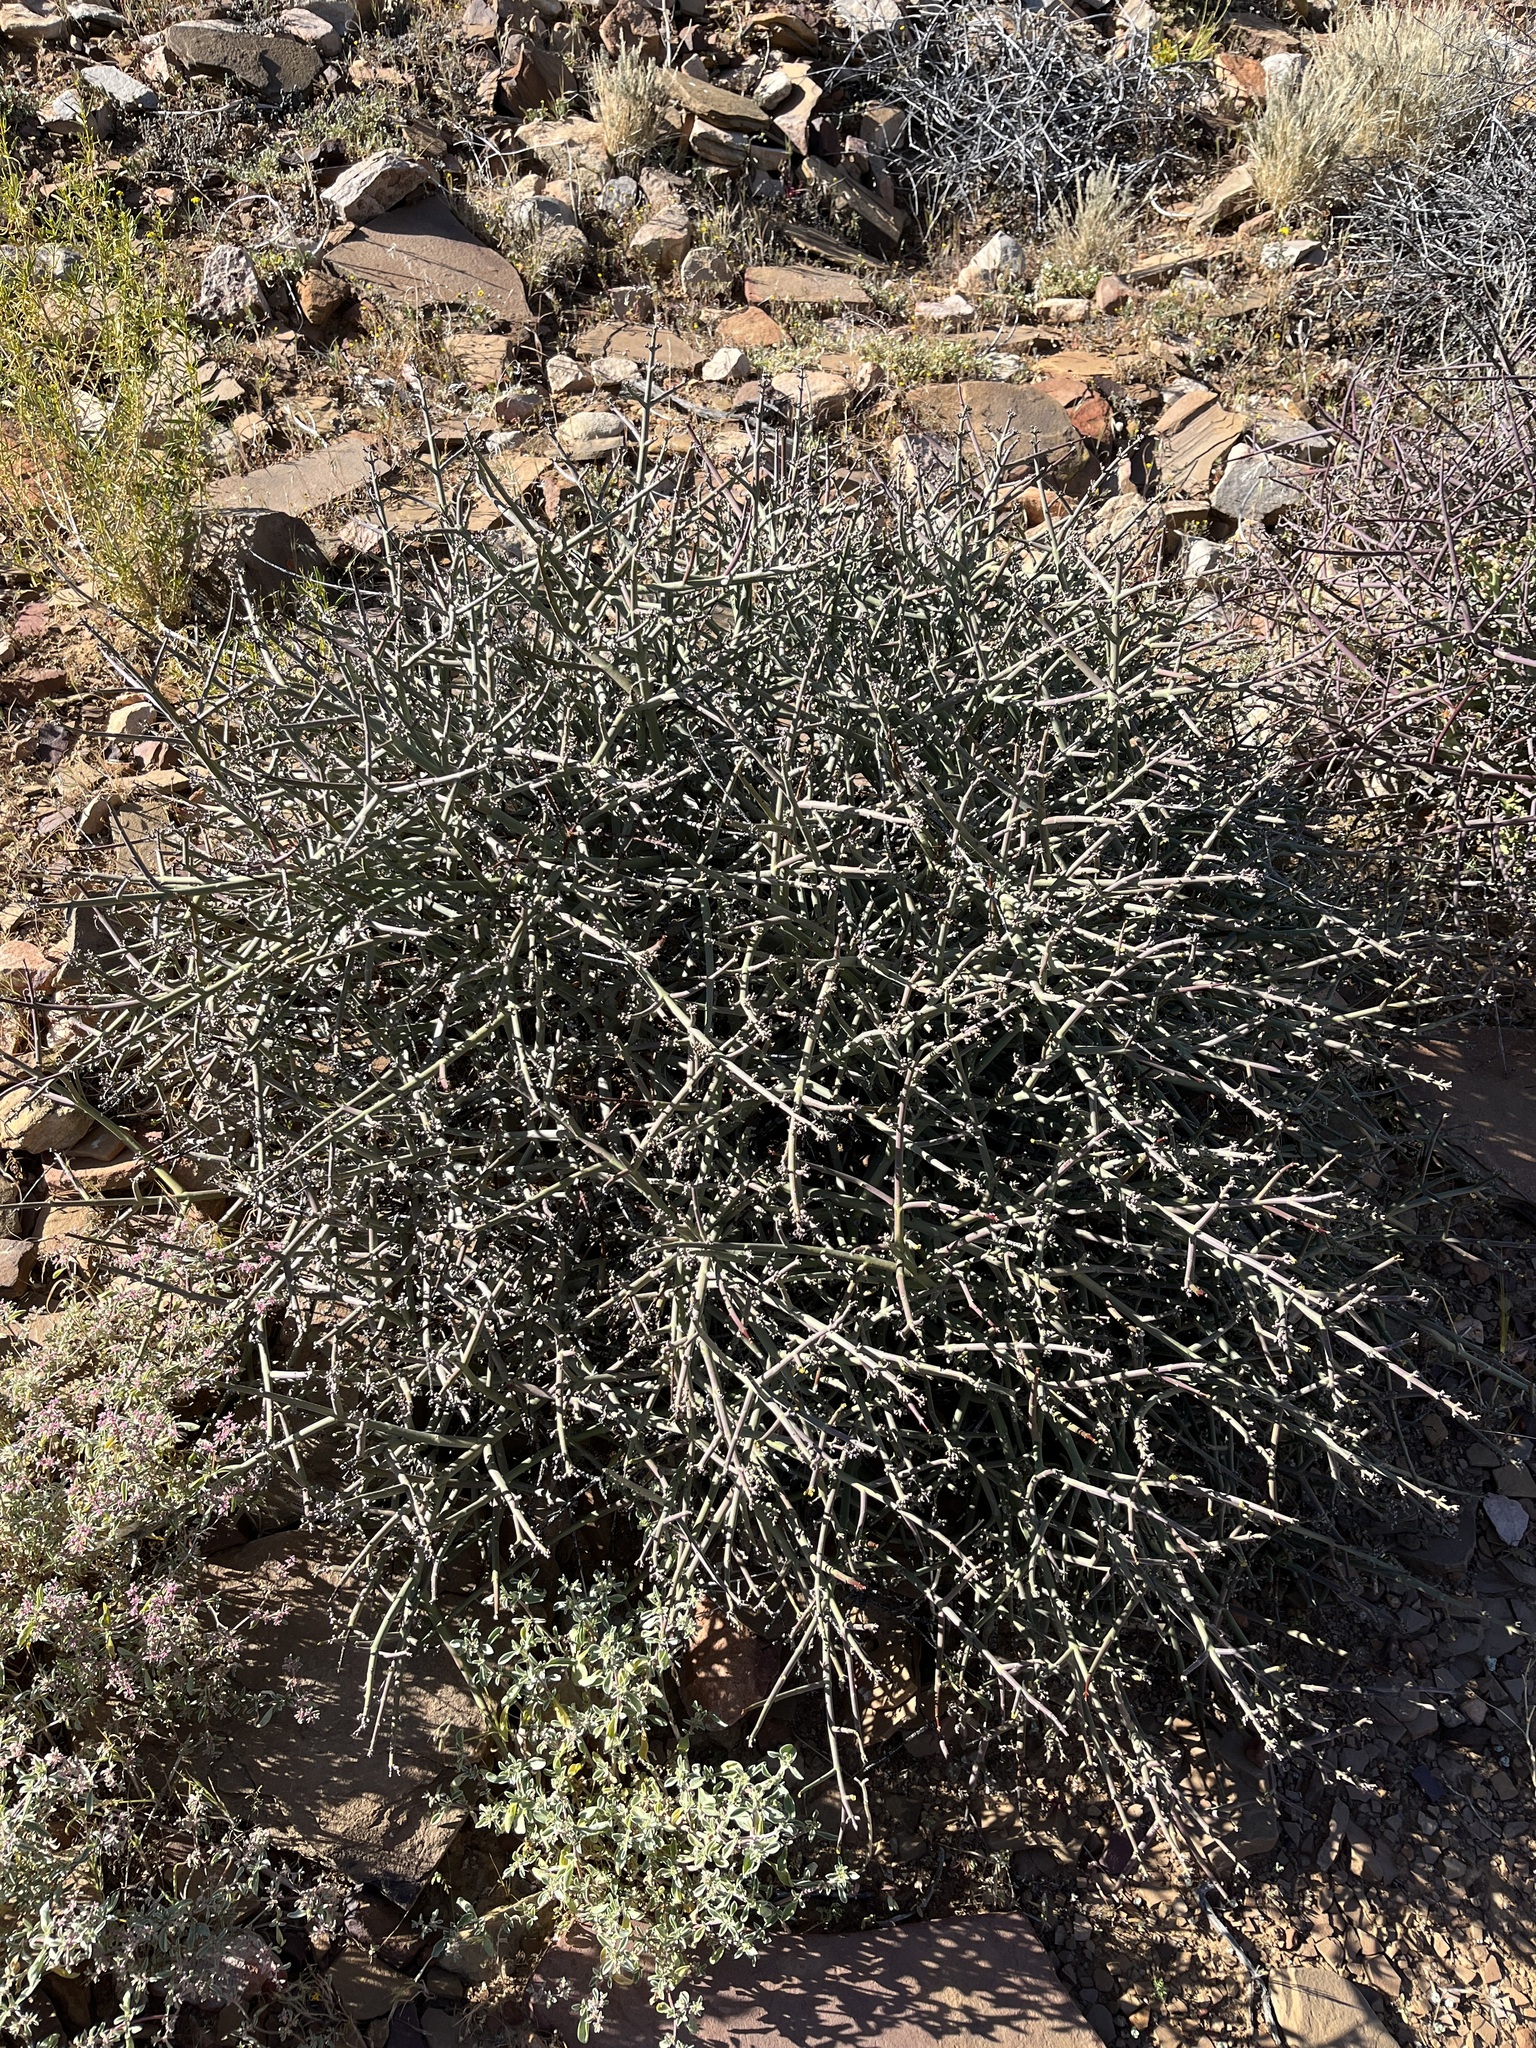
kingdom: Plantae
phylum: Tracheophyta
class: Magnoliopsida
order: Malpighiales
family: Euphorbiaceae
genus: Euphorbia
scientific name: Euphorbia rhombifolia
